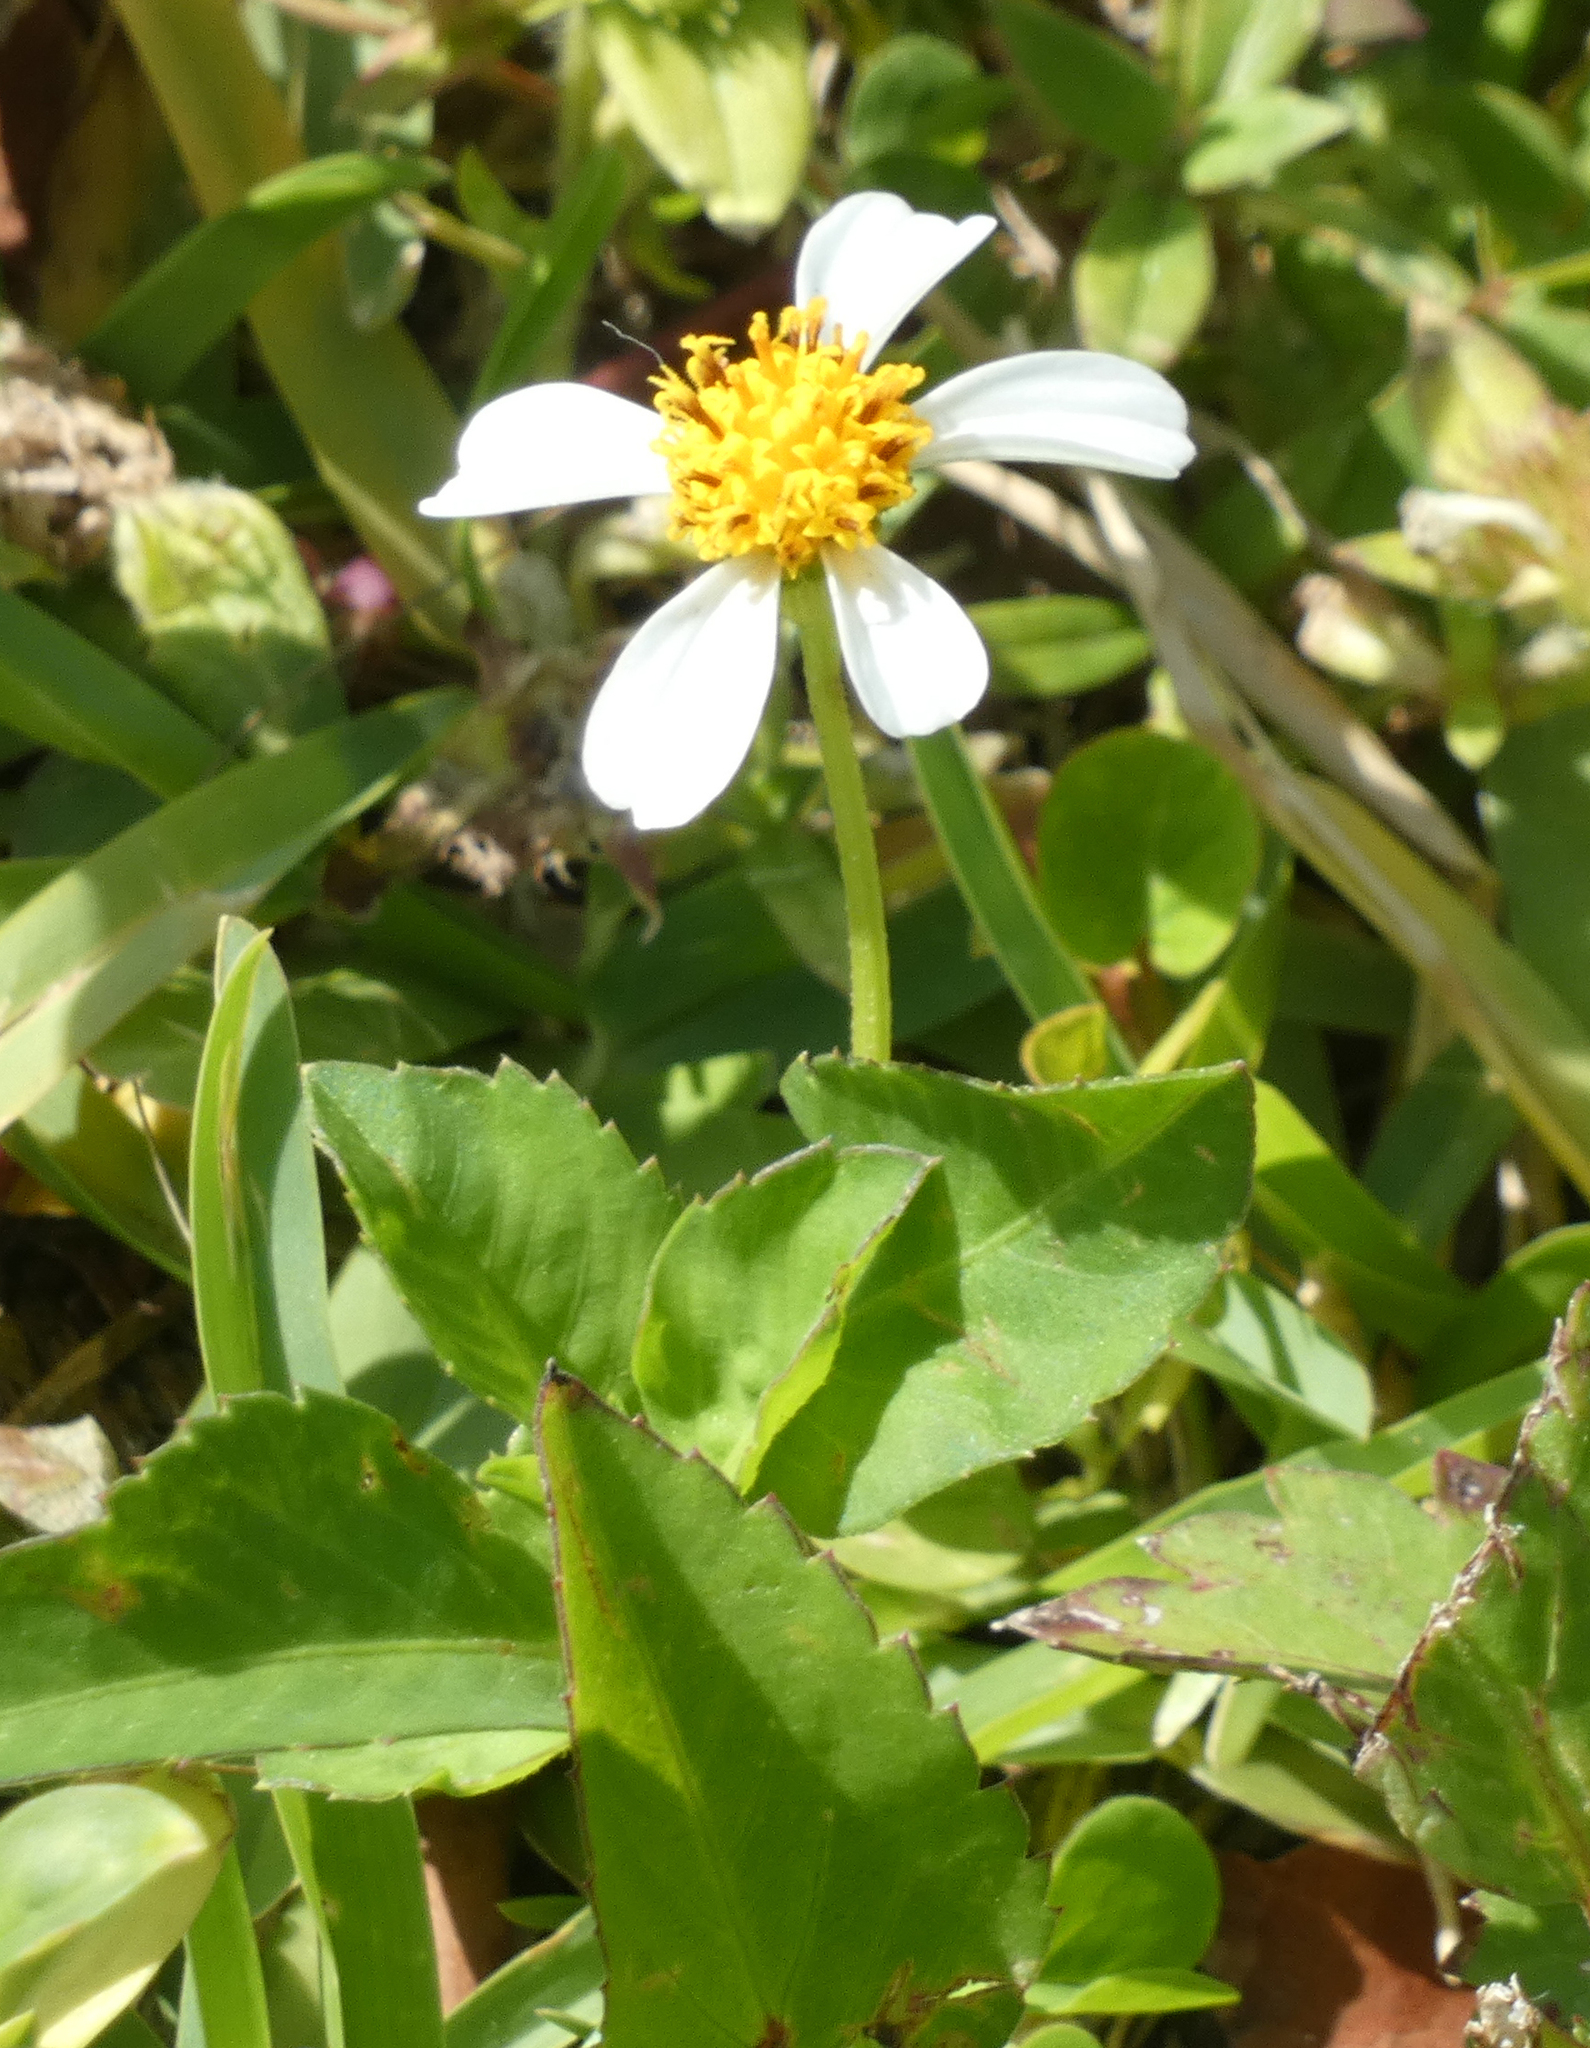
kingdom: Plantae
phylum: Tracheophyta
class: Magnoliopsida
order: Asterales
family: Asteraceae
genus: Bidens
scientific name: Bidens alba
